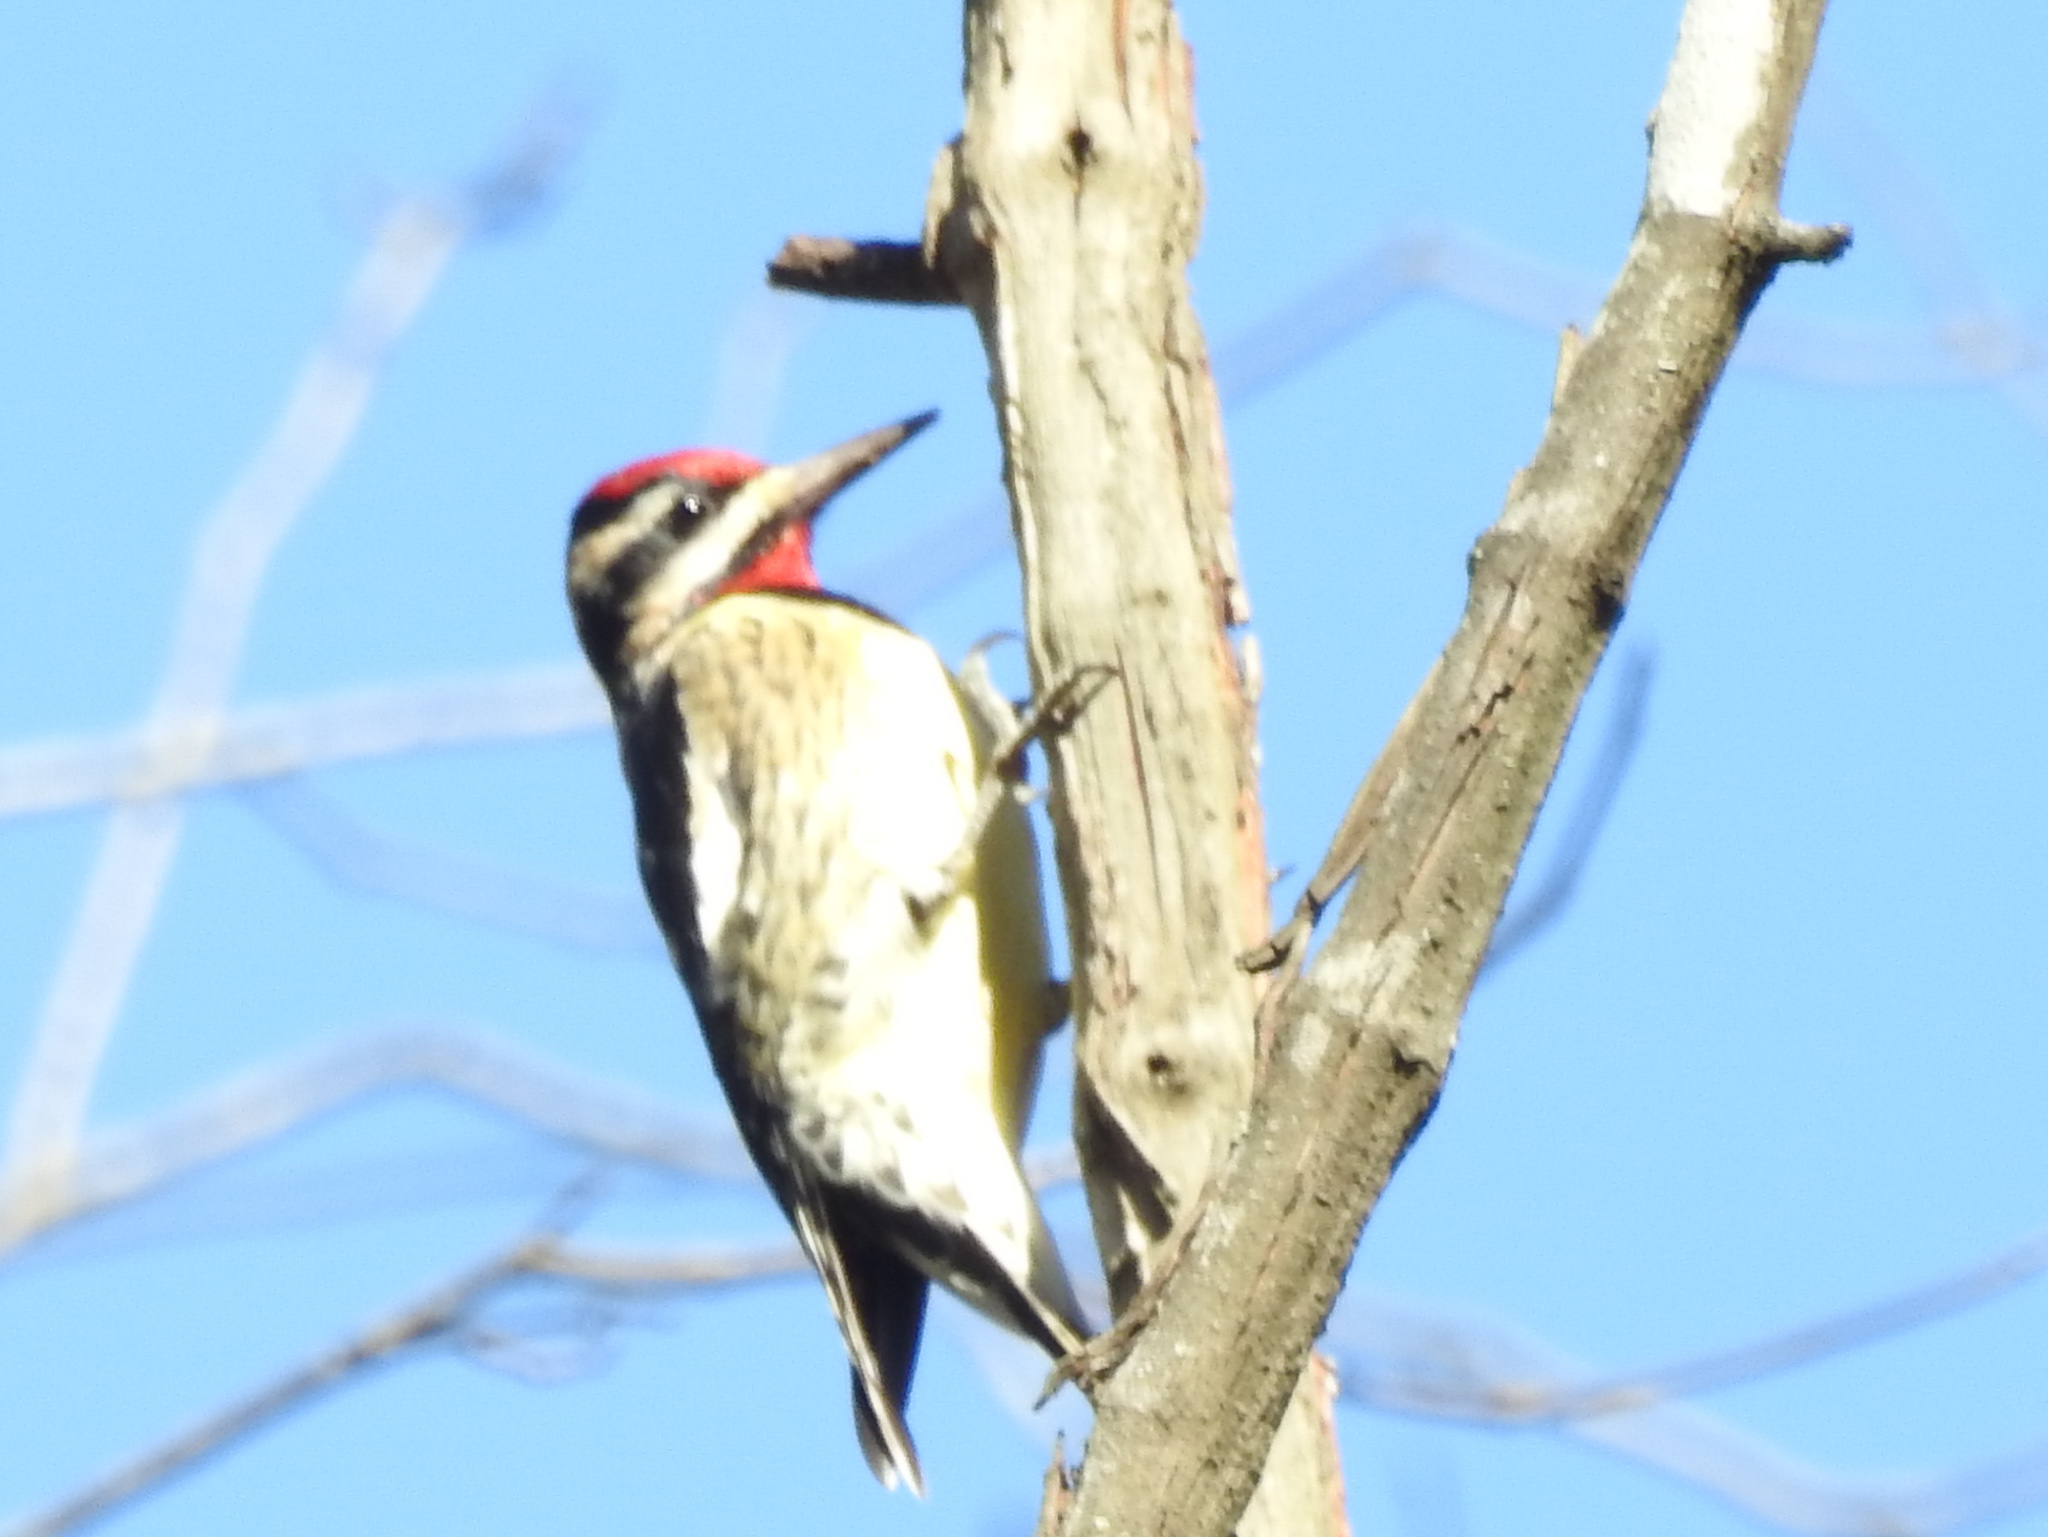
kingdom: Animalia
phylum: Chordata
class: Aves
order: Piciformes
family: Picidae
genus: Sphyrapicus
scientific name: Sphyrapicus varius
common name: Yellow-bellied sapsucker
